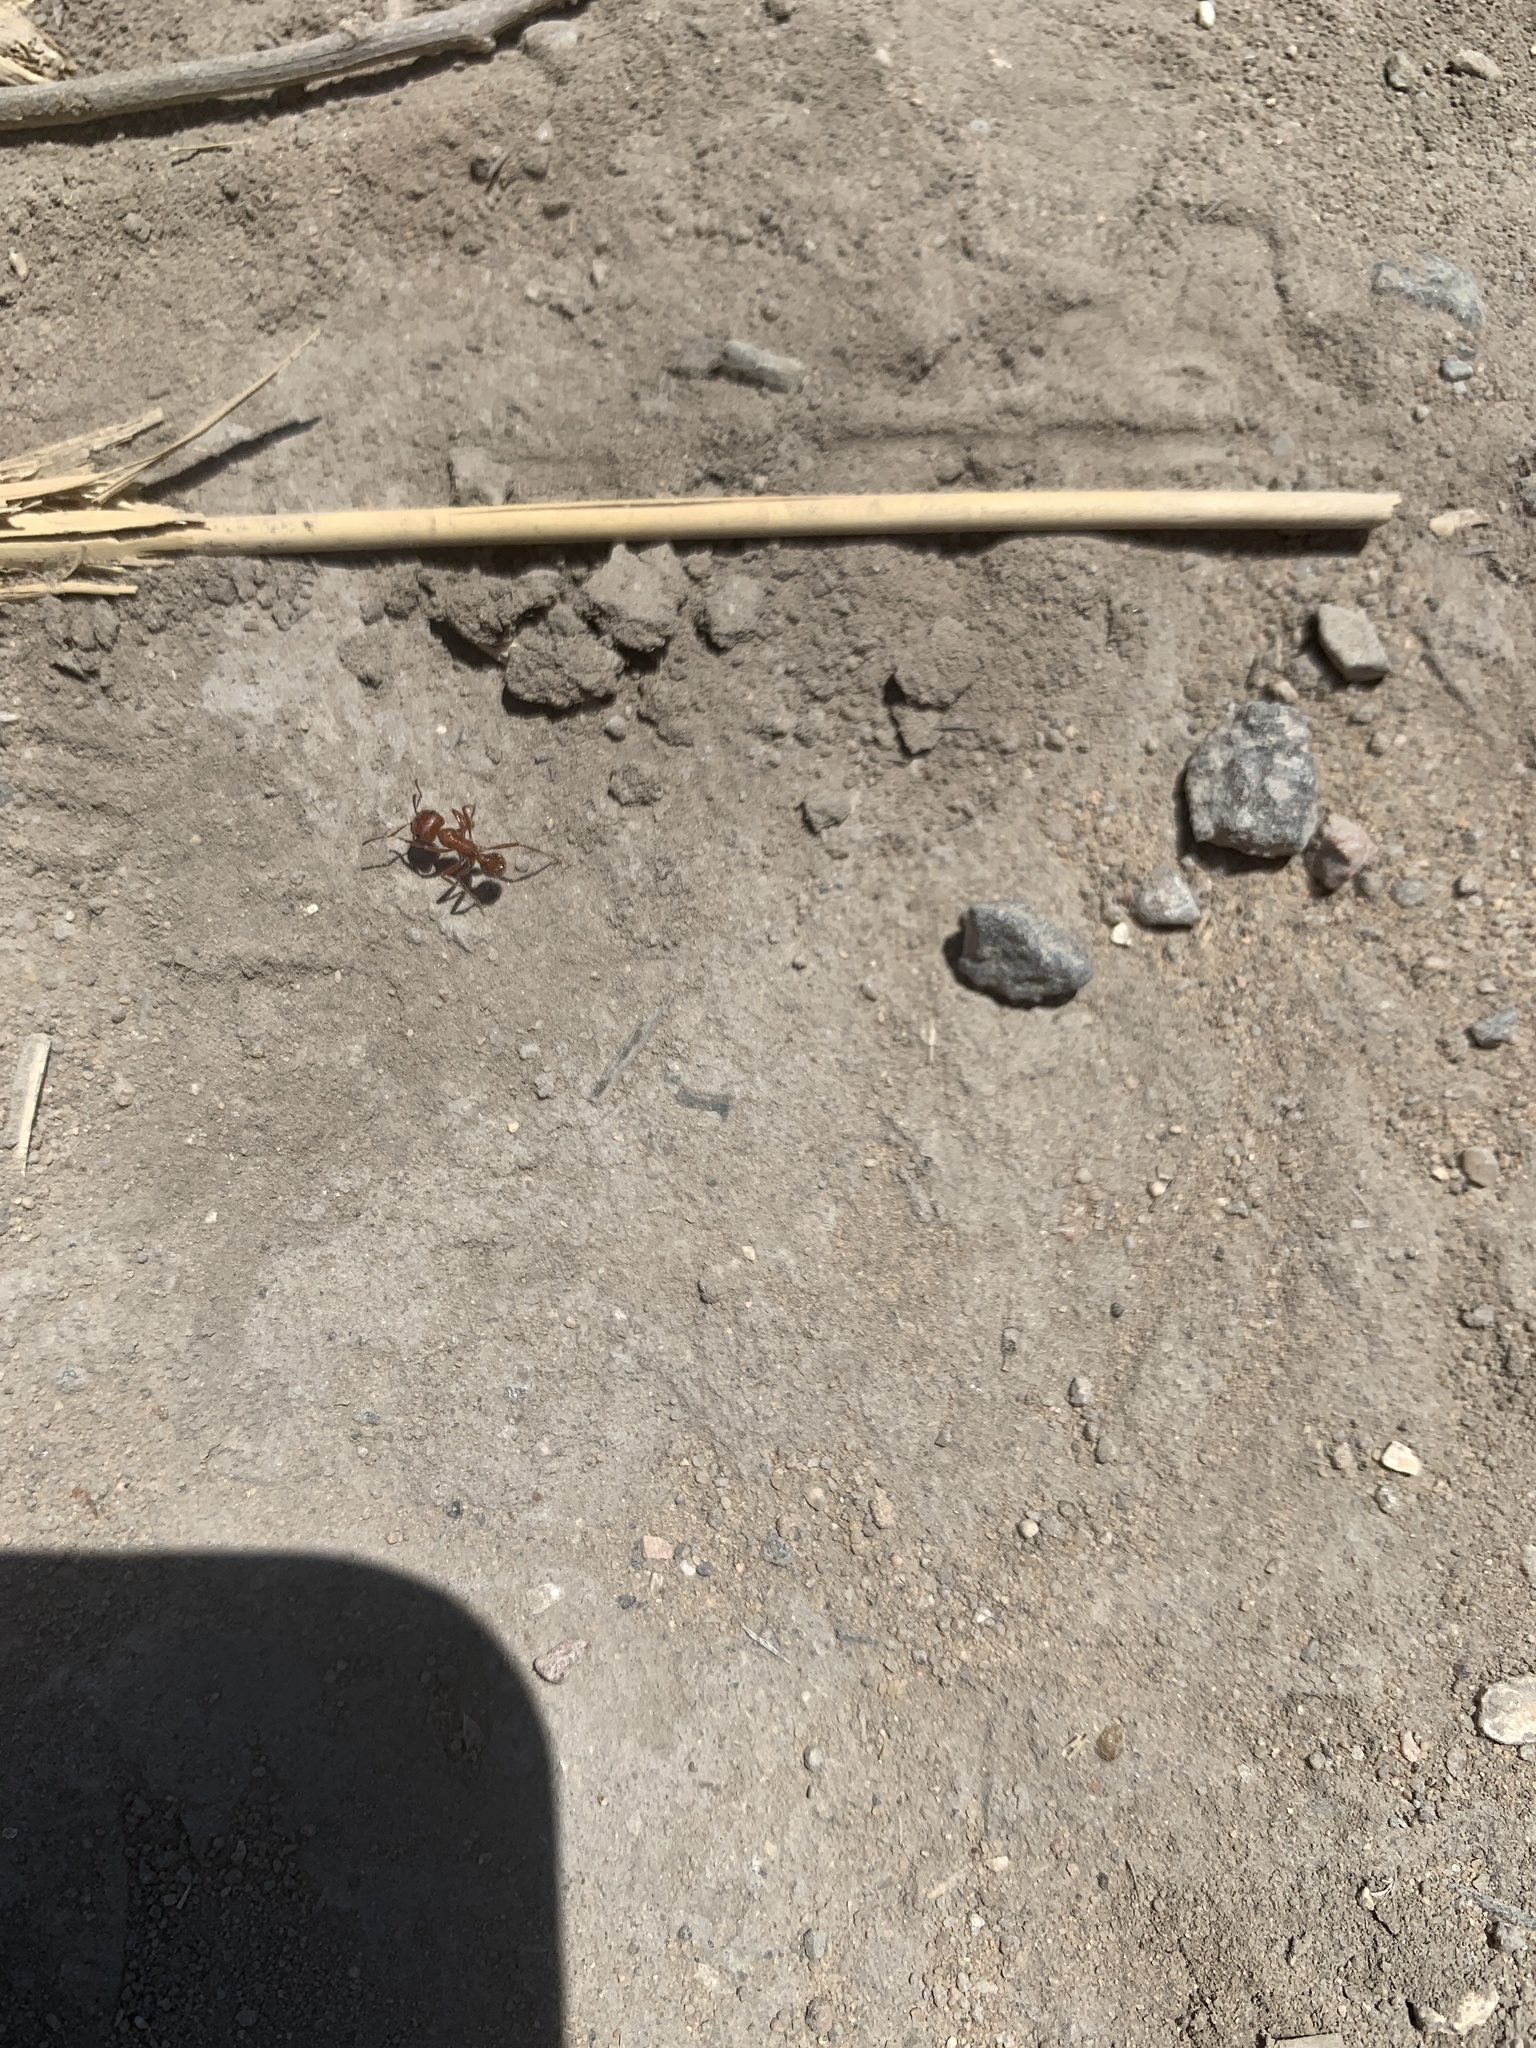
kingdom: Animalia
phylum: Arthropoda
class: Insecta
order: Hymenoptera
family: Formicidae
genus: Pogonomyrmex
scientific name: Pogonomyrmex occidentalis
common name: Western harvester ant
